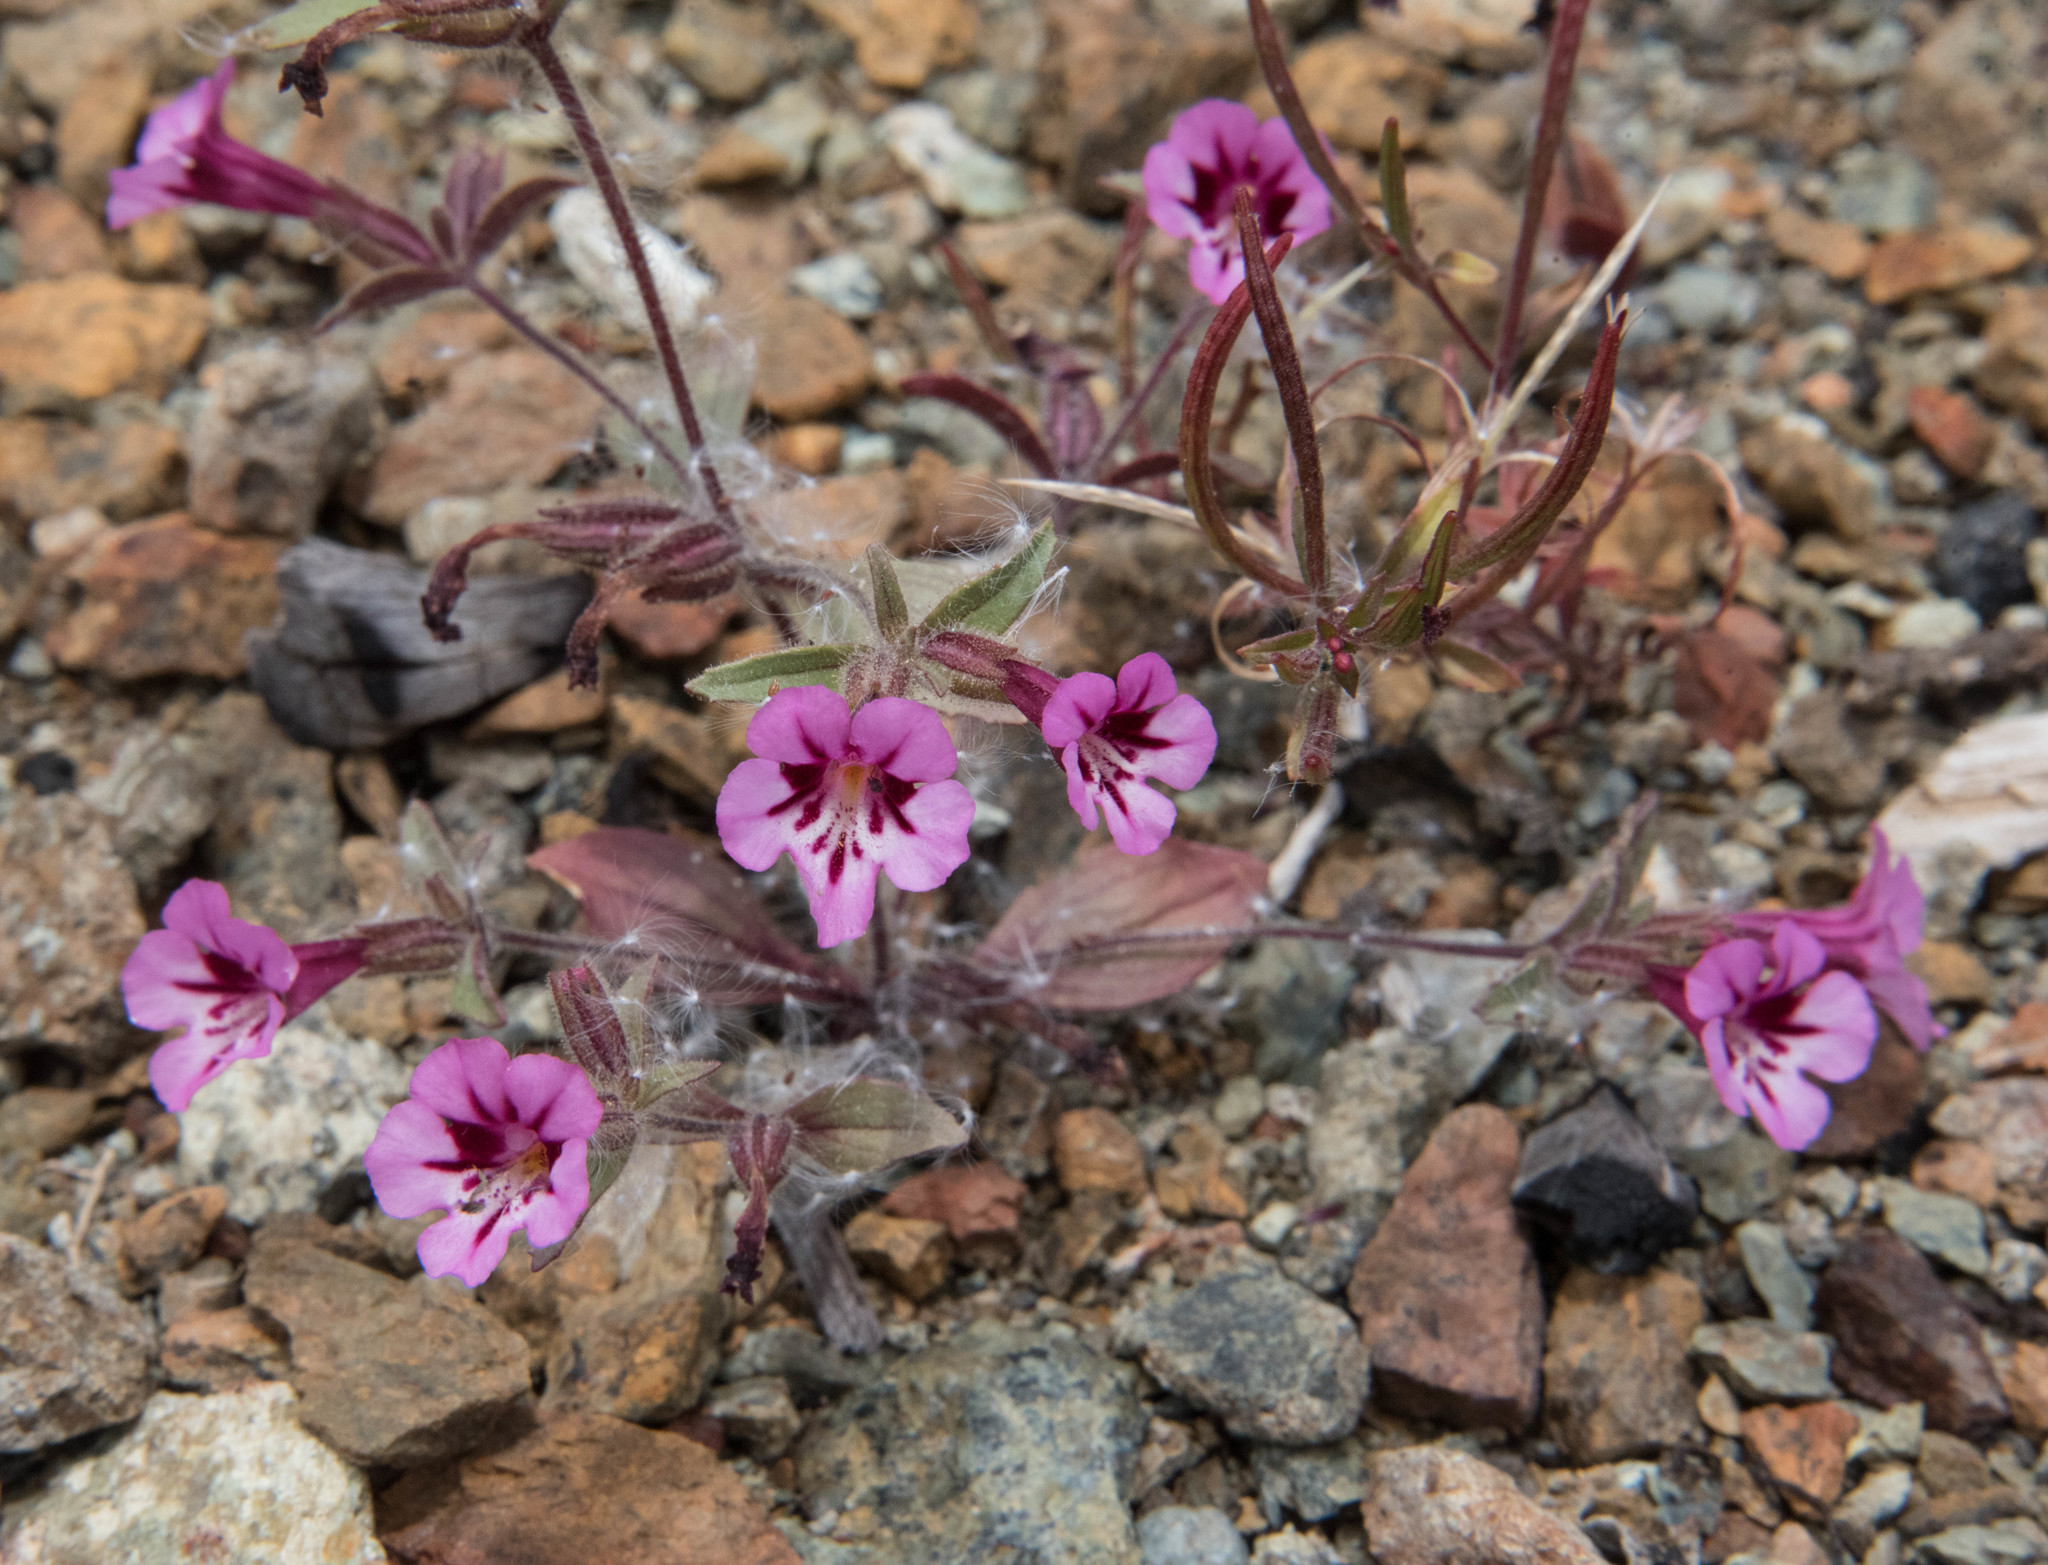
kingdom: Plantae
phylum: Tracheophyta
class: Magnoliopsida
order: Lamiales
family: Phrymaceae
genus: Diplacus
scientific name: Diplacus layneae
